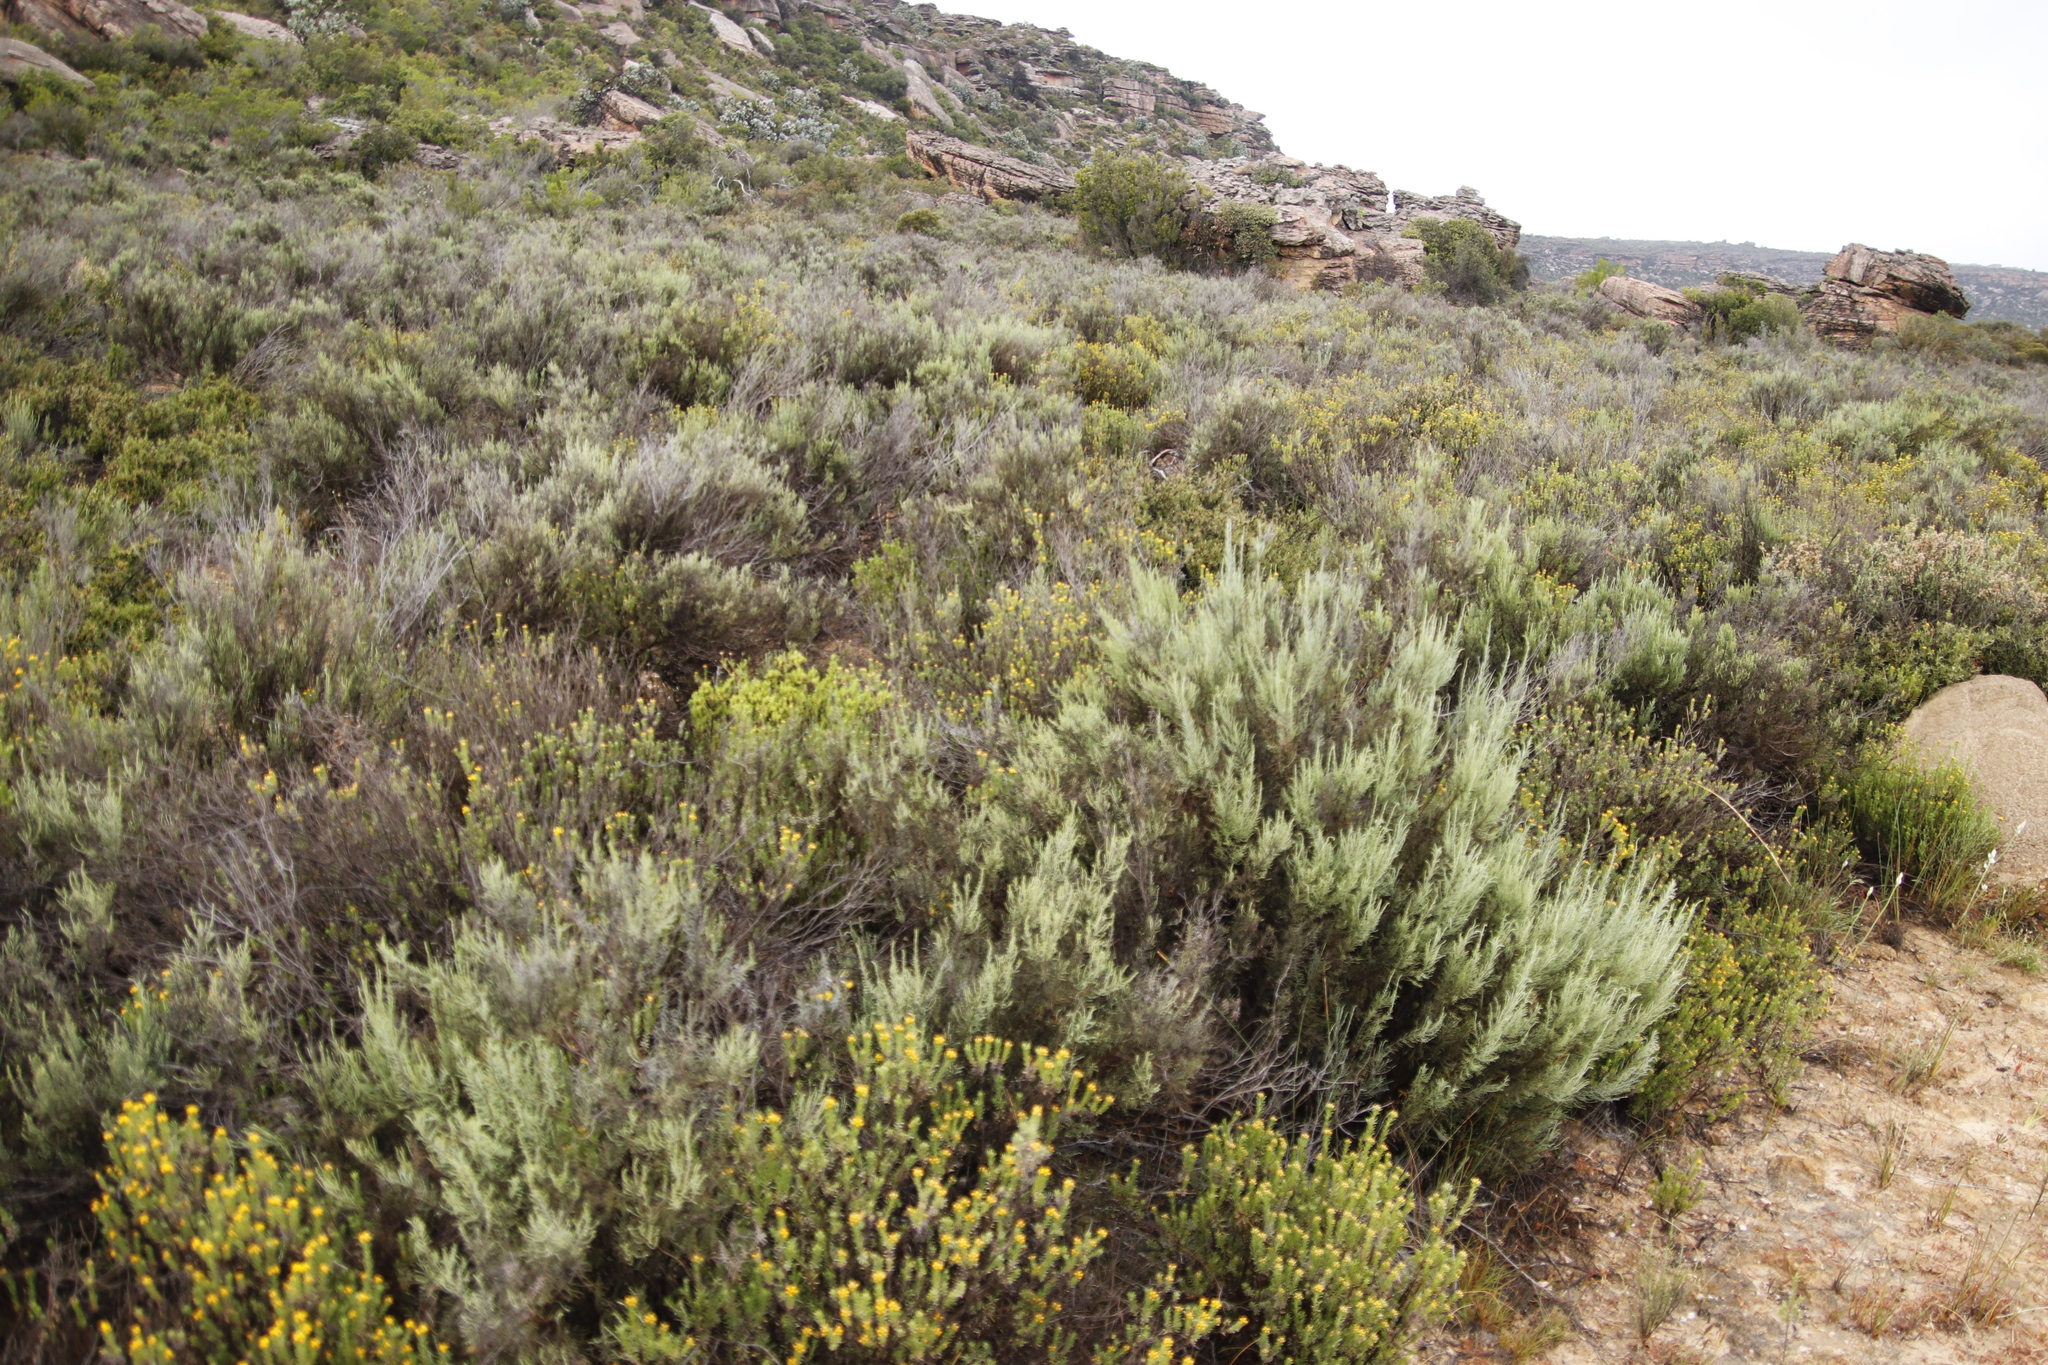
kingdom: Plantae
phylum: Tracheophyta
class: Magnoliopsida
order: Asterales
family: Asteraceae
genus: Dicerothamnus
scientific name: Dicerothamnus rhinocerotis
